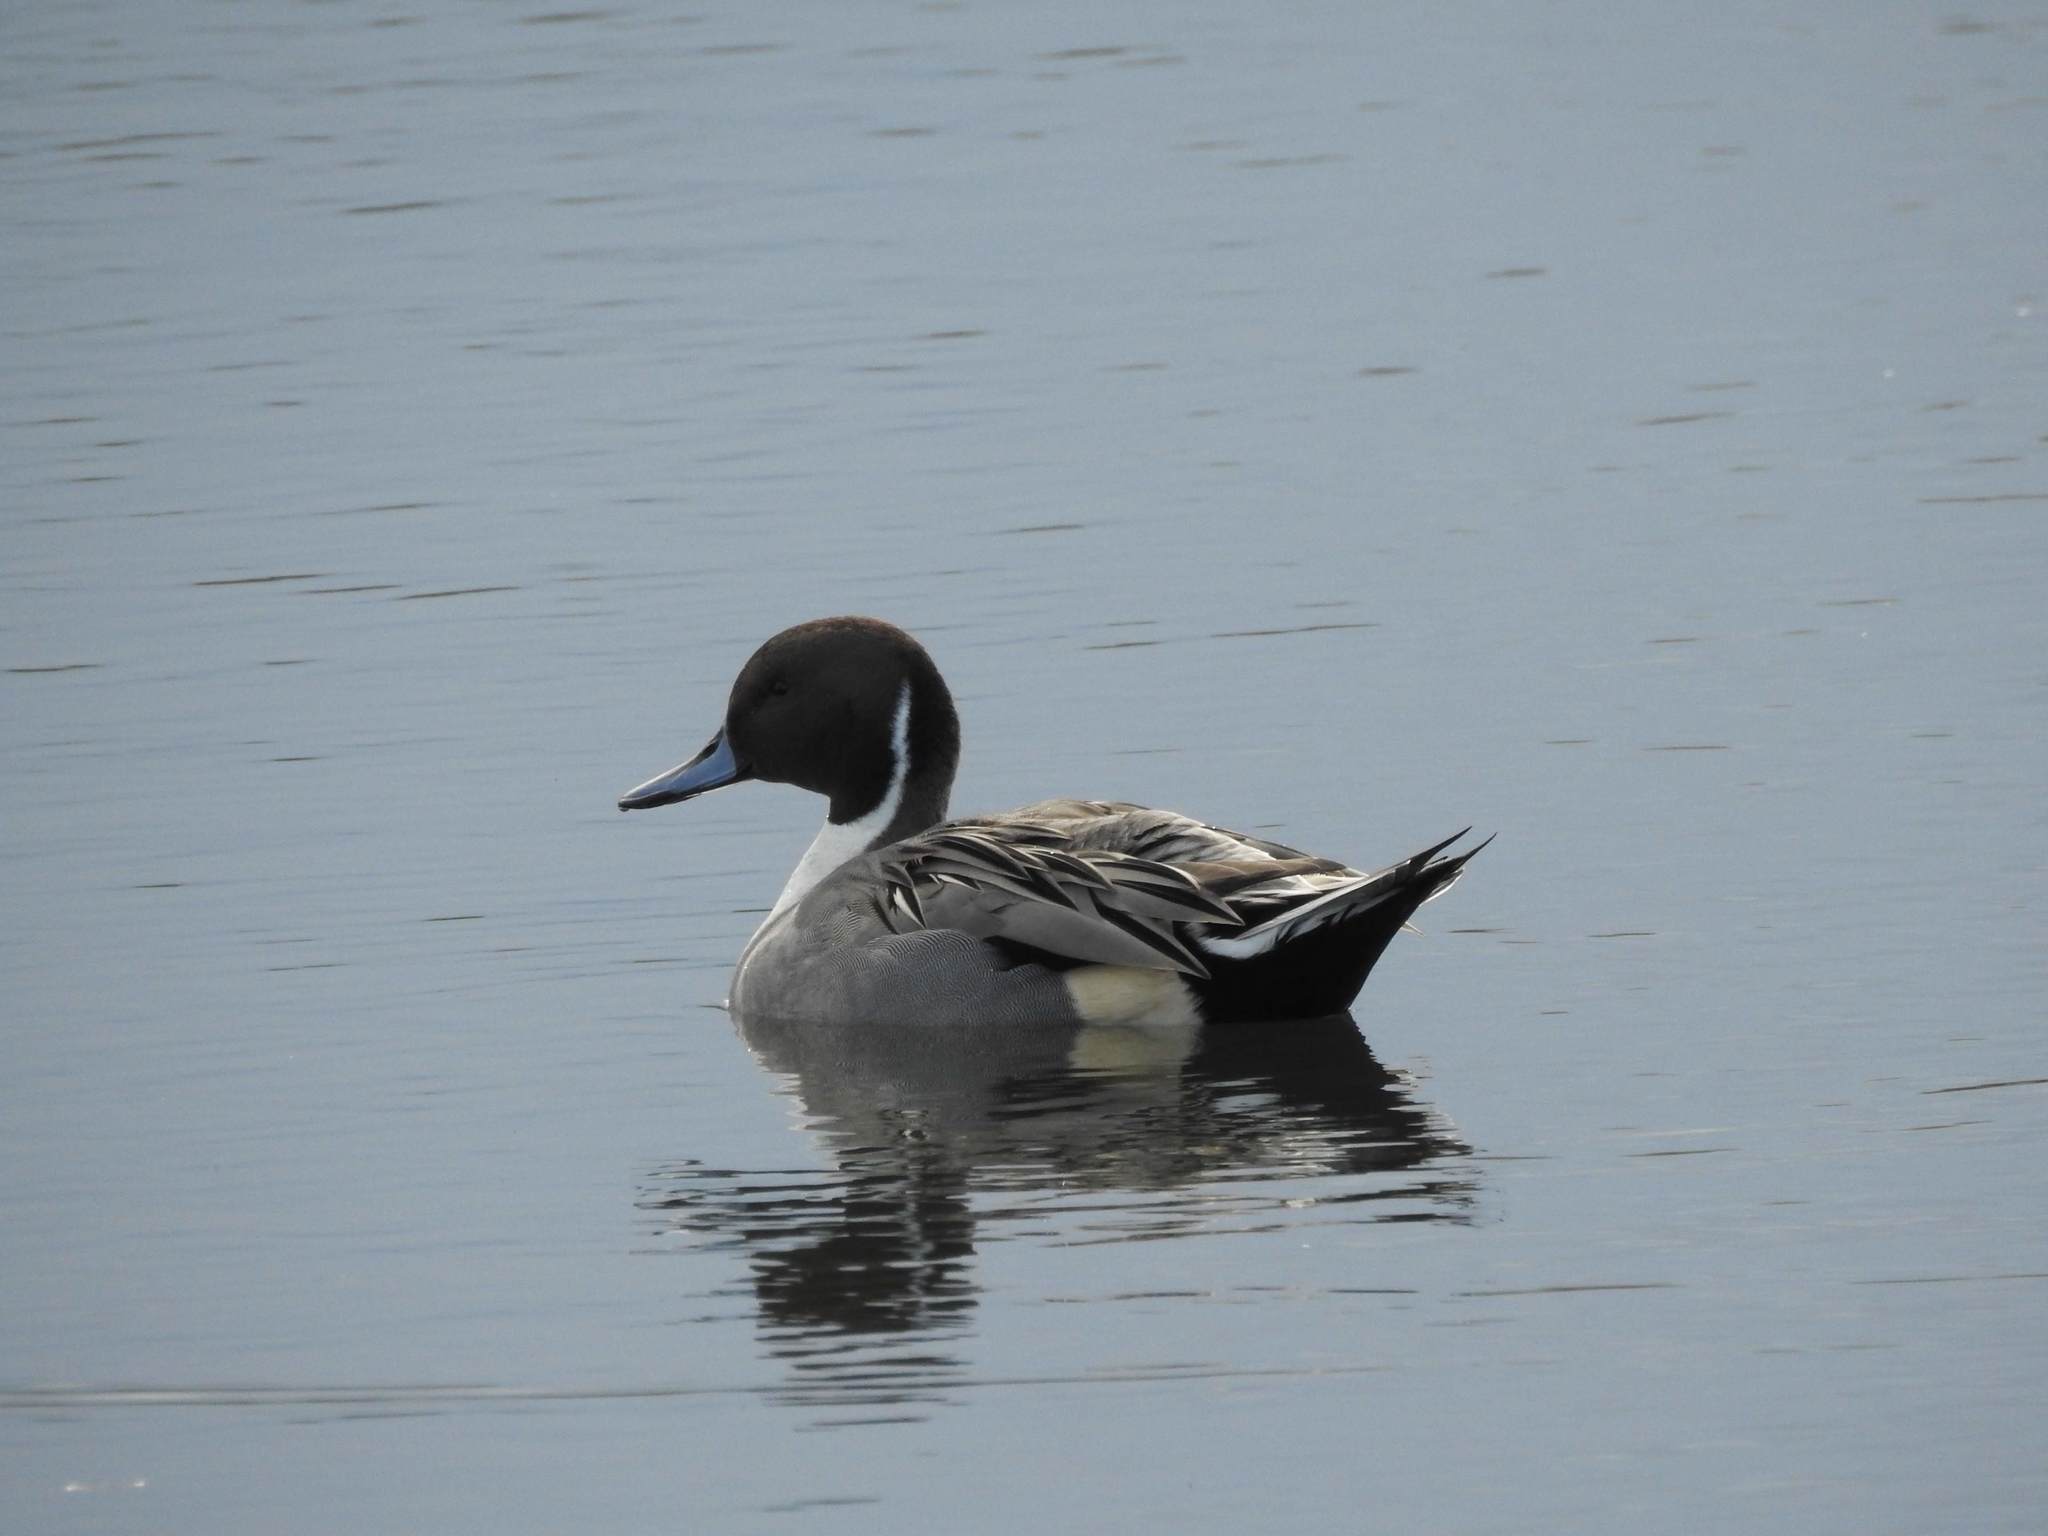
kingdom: Animalia
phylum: Chordata
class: Aves
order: Anseriformes
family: Anatidae
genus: Anas
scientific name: Anas acuta
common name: Northern pintail
